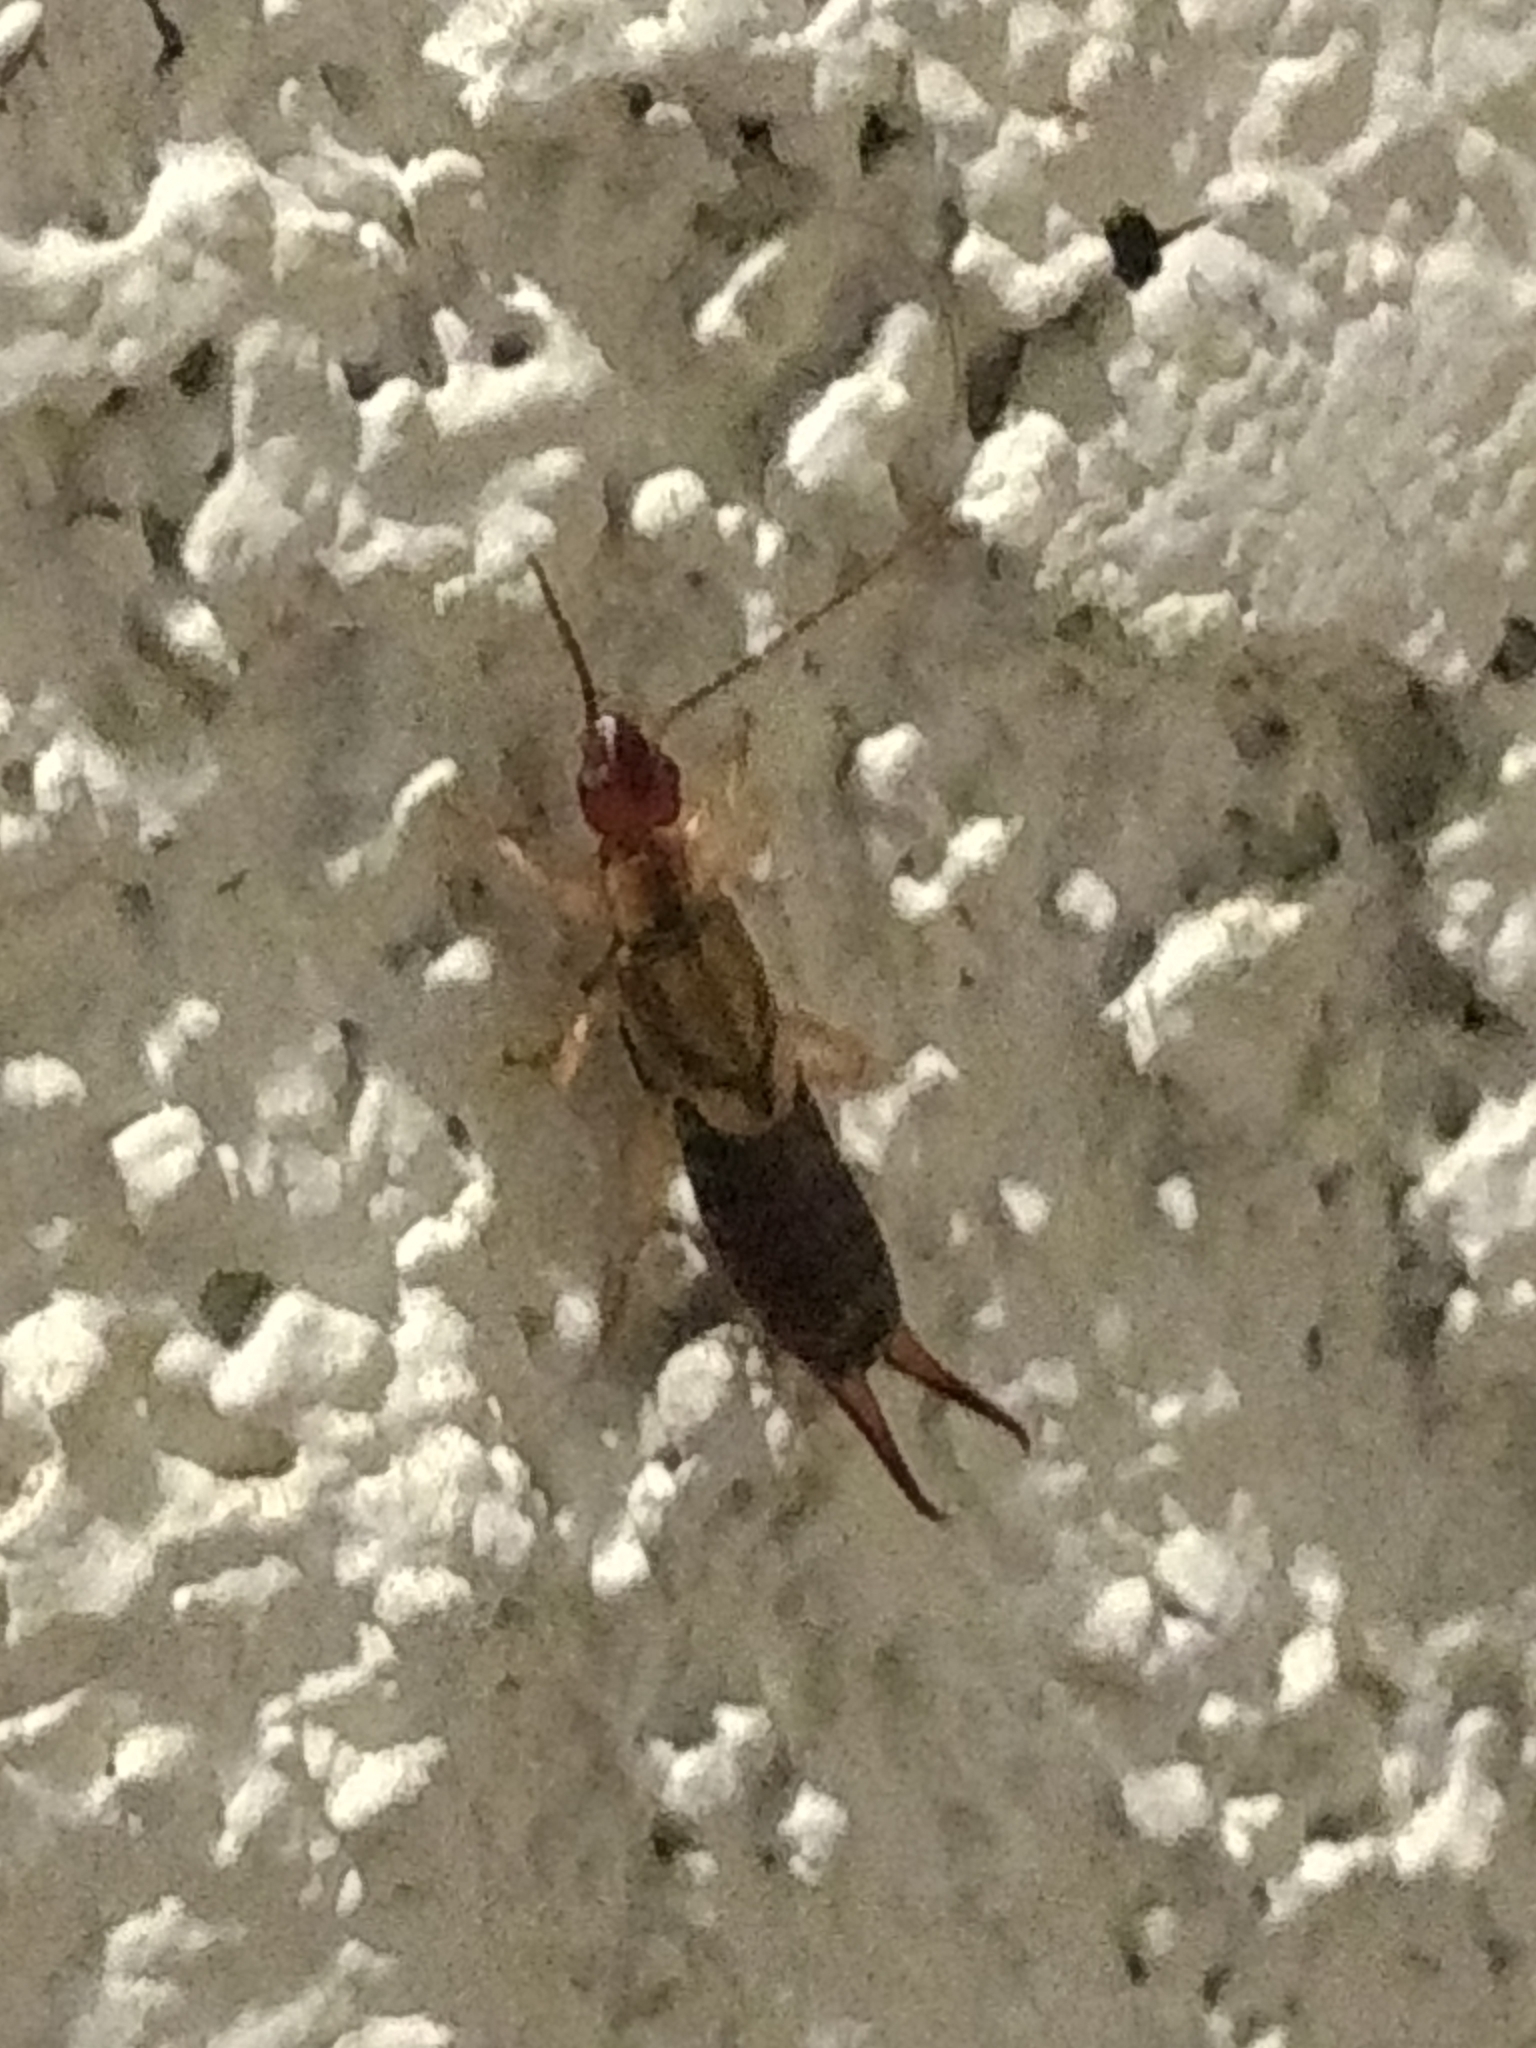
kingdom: Animalia
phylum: Arthropoda
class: Insecta
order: Dermaptera
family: Forficulidae
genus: Forficula
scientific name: Forficula
